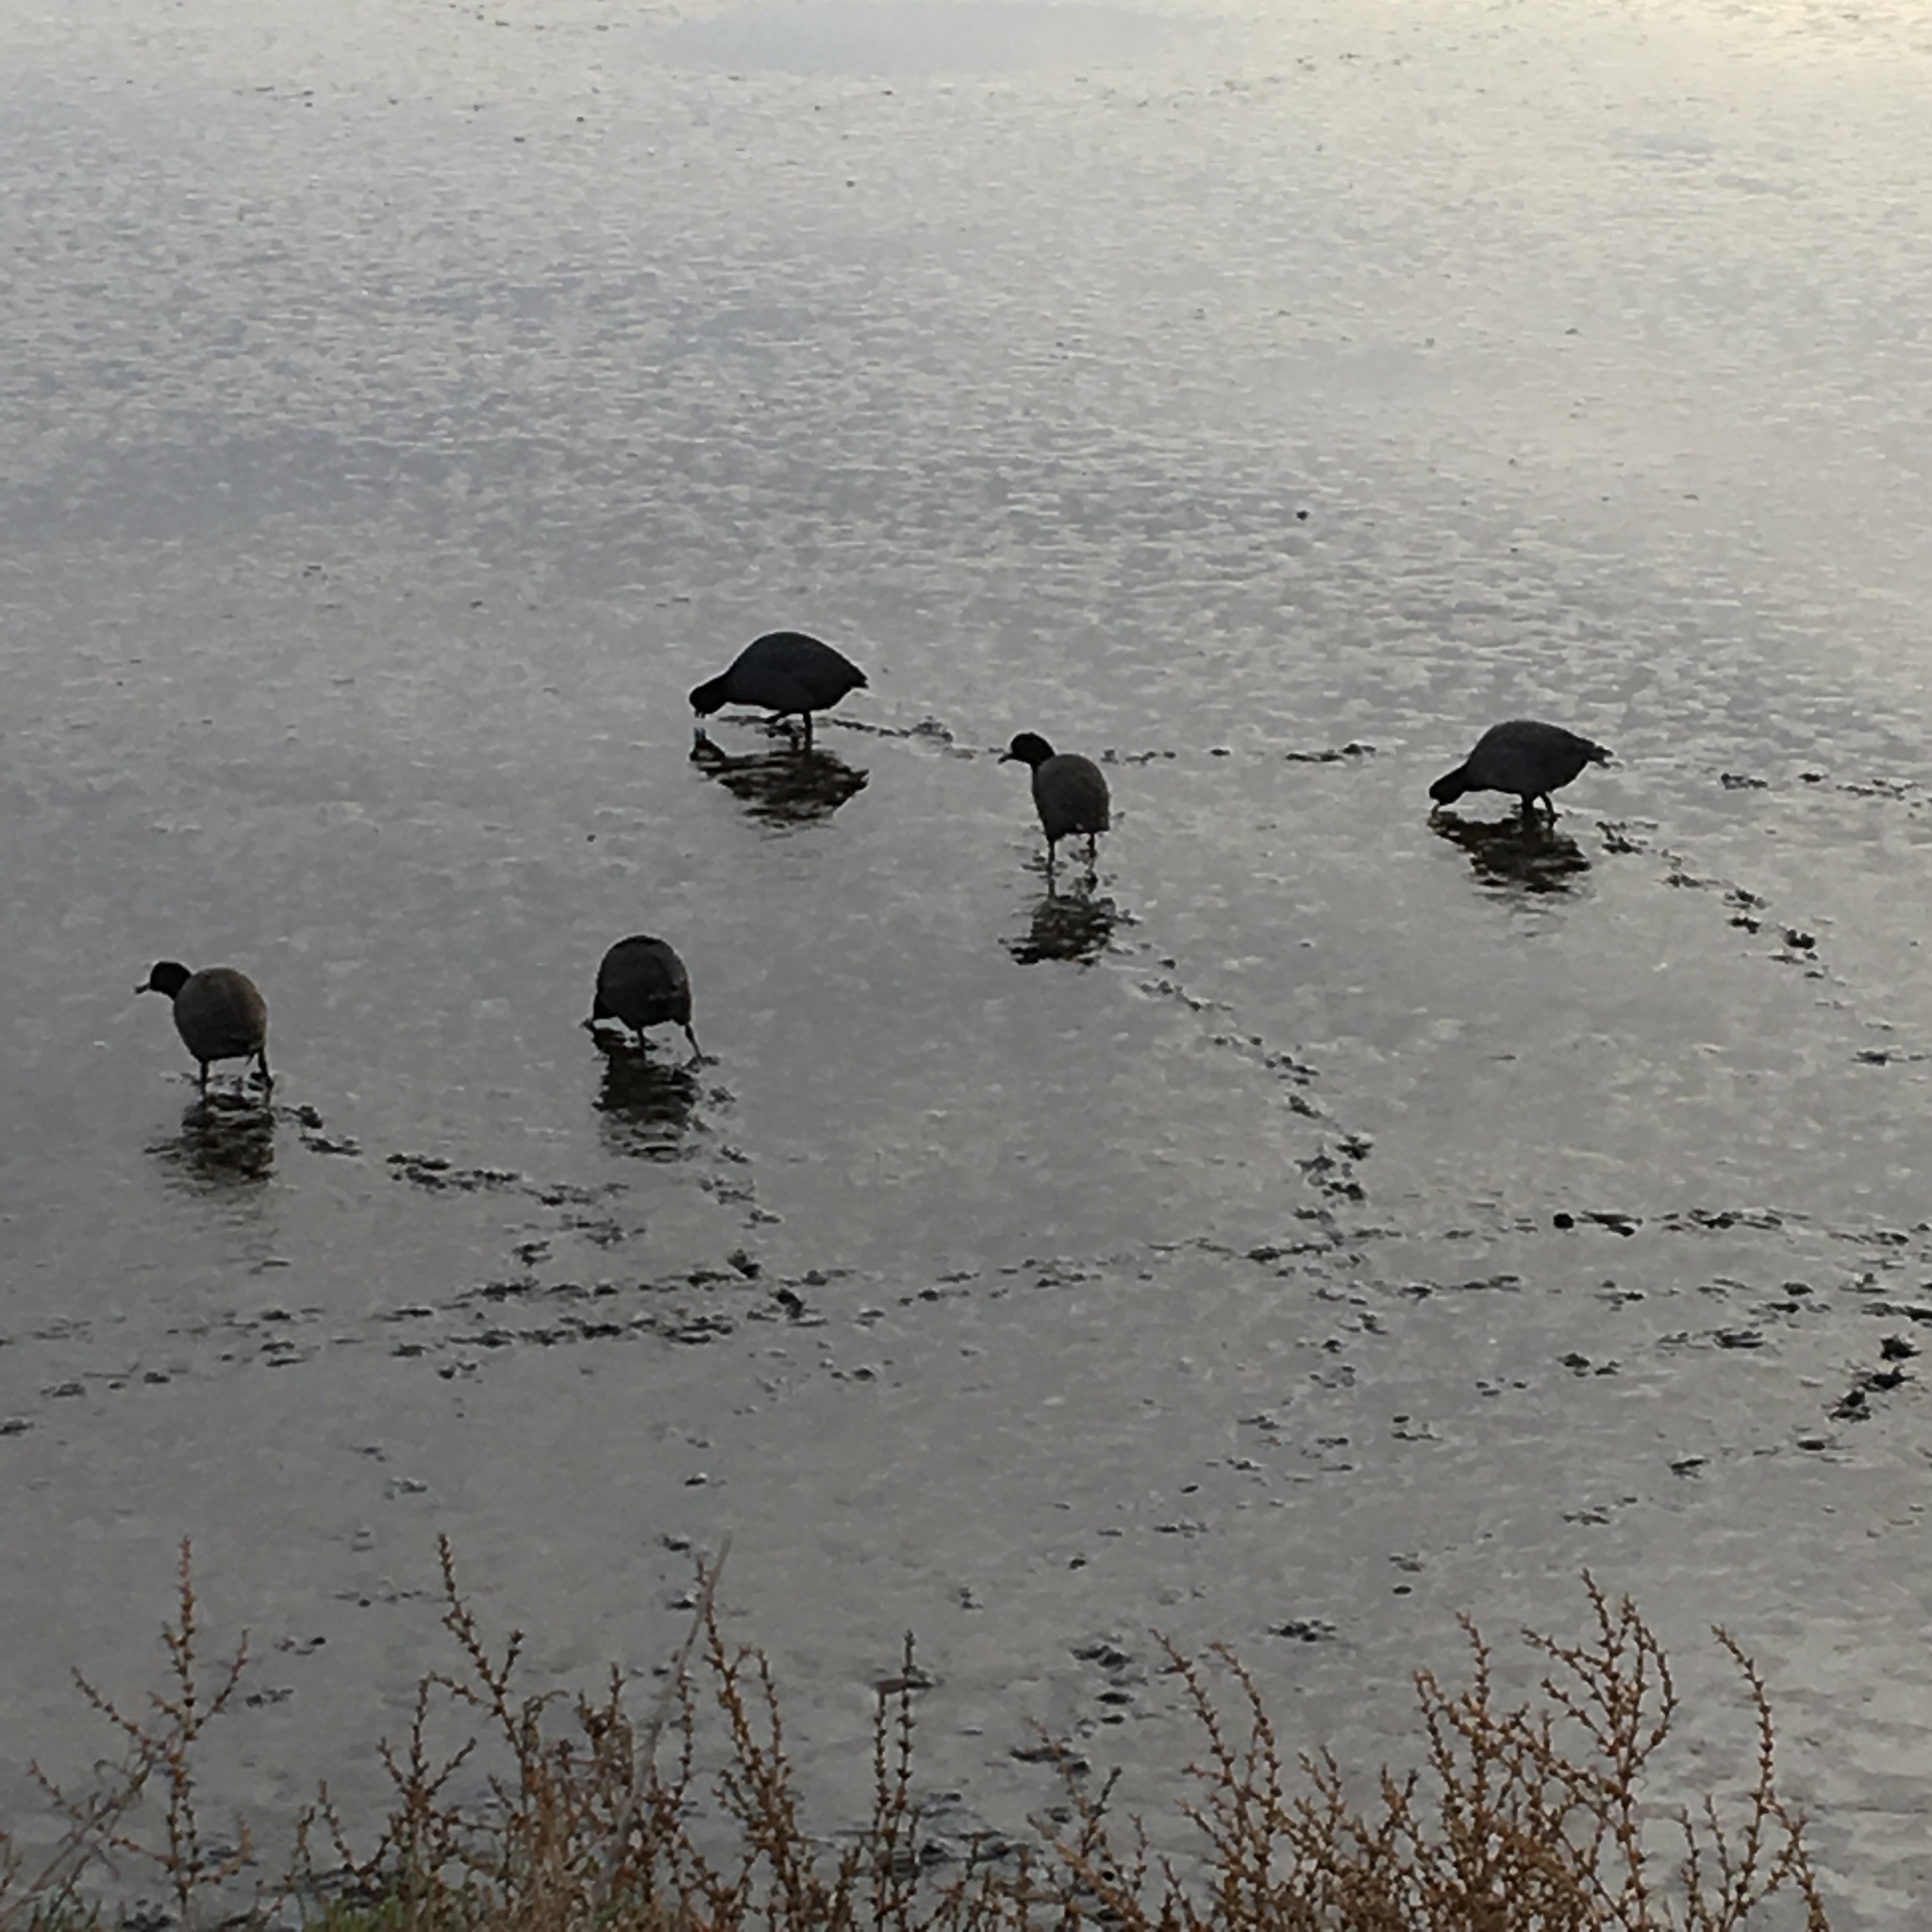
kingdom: Animalia
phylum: Chordata
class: Aves
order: Gruiformes
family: Rallidae
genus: Fulica
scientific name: Fulica americana
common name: American coot
